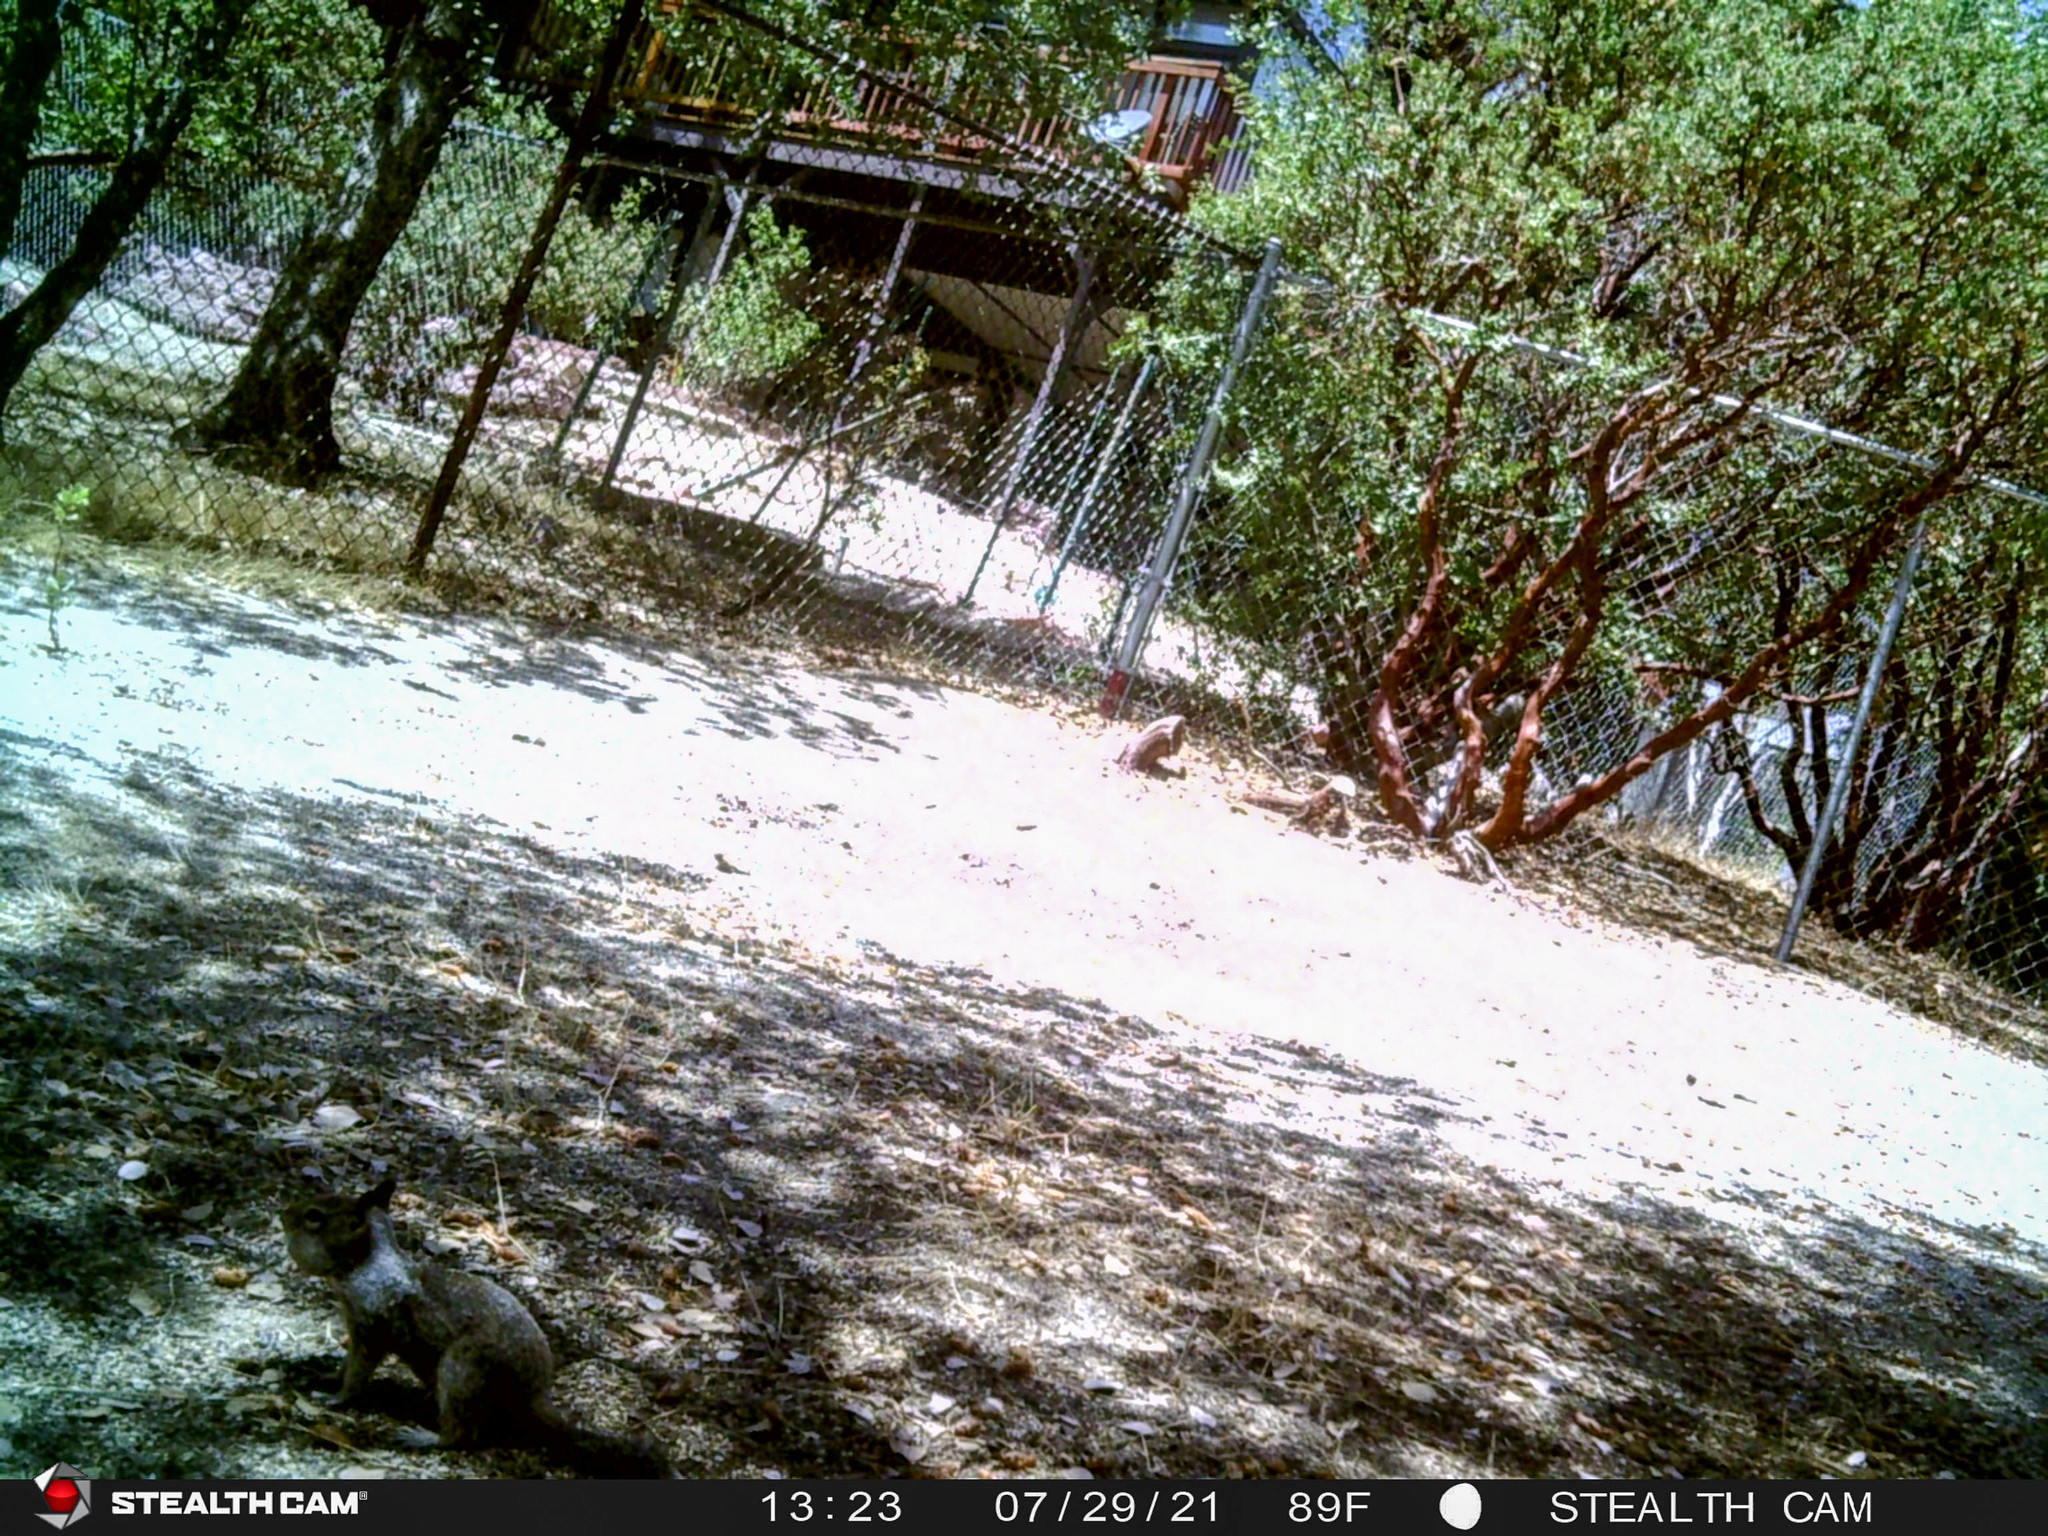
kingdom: Animalia
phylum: Chordata
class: Mammalia
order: Rodentia
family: Sciuridae
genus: Otospermophilus
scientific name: Otospermophilus beecheyi
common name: California ground squirrel
